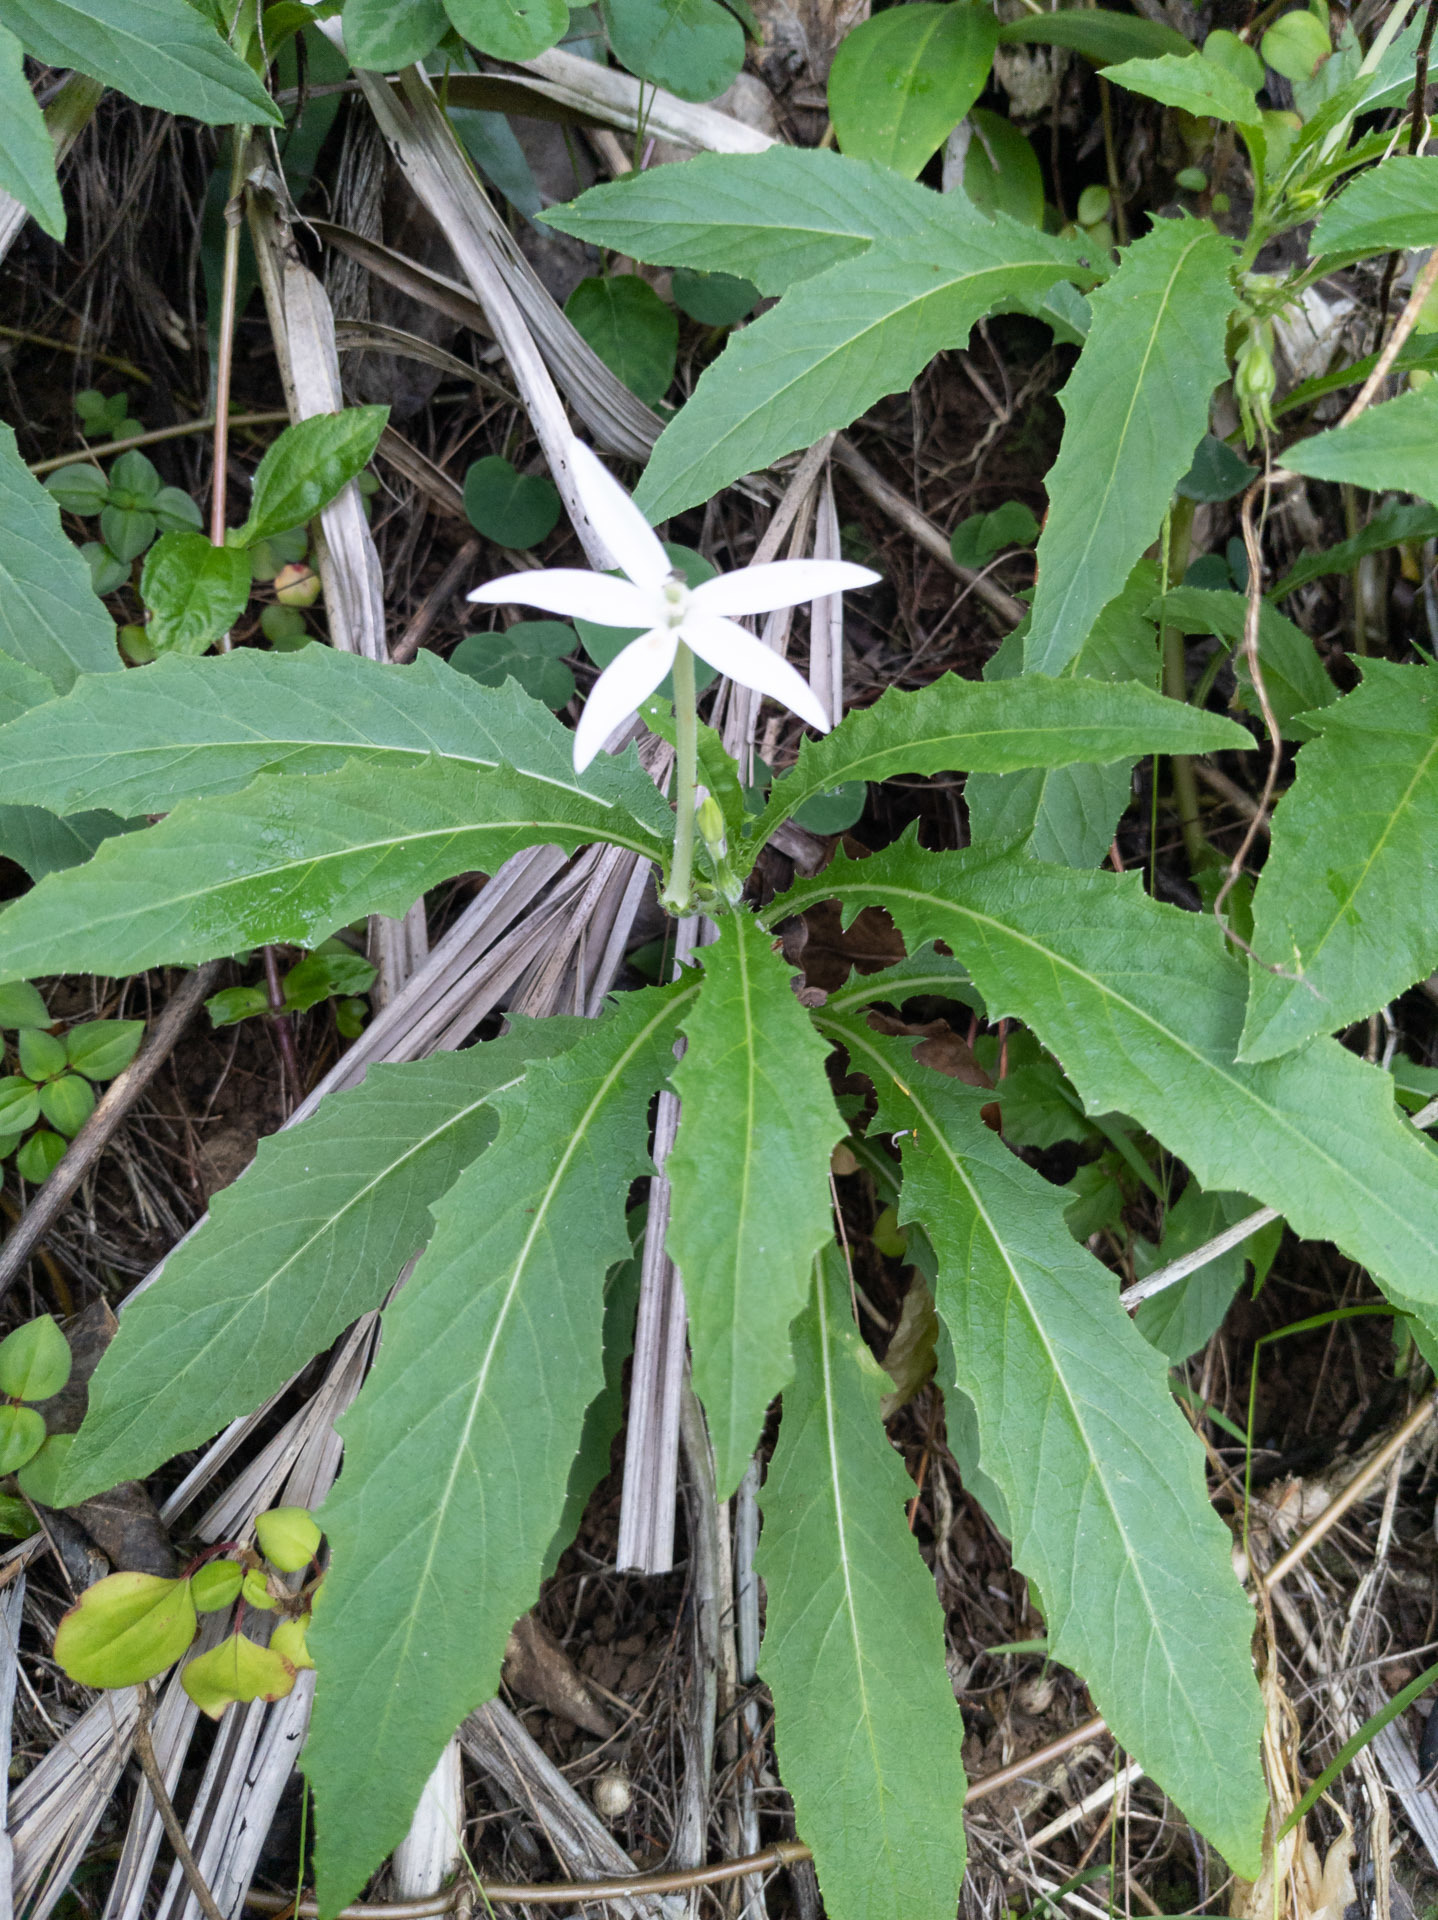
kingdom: Plantae
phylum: Tracheophyta
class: Magnoliopsida
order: Asterales
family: Campanulaceae
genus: Hippobroma
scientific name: Hippobroma longiflora
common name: Madamfate
